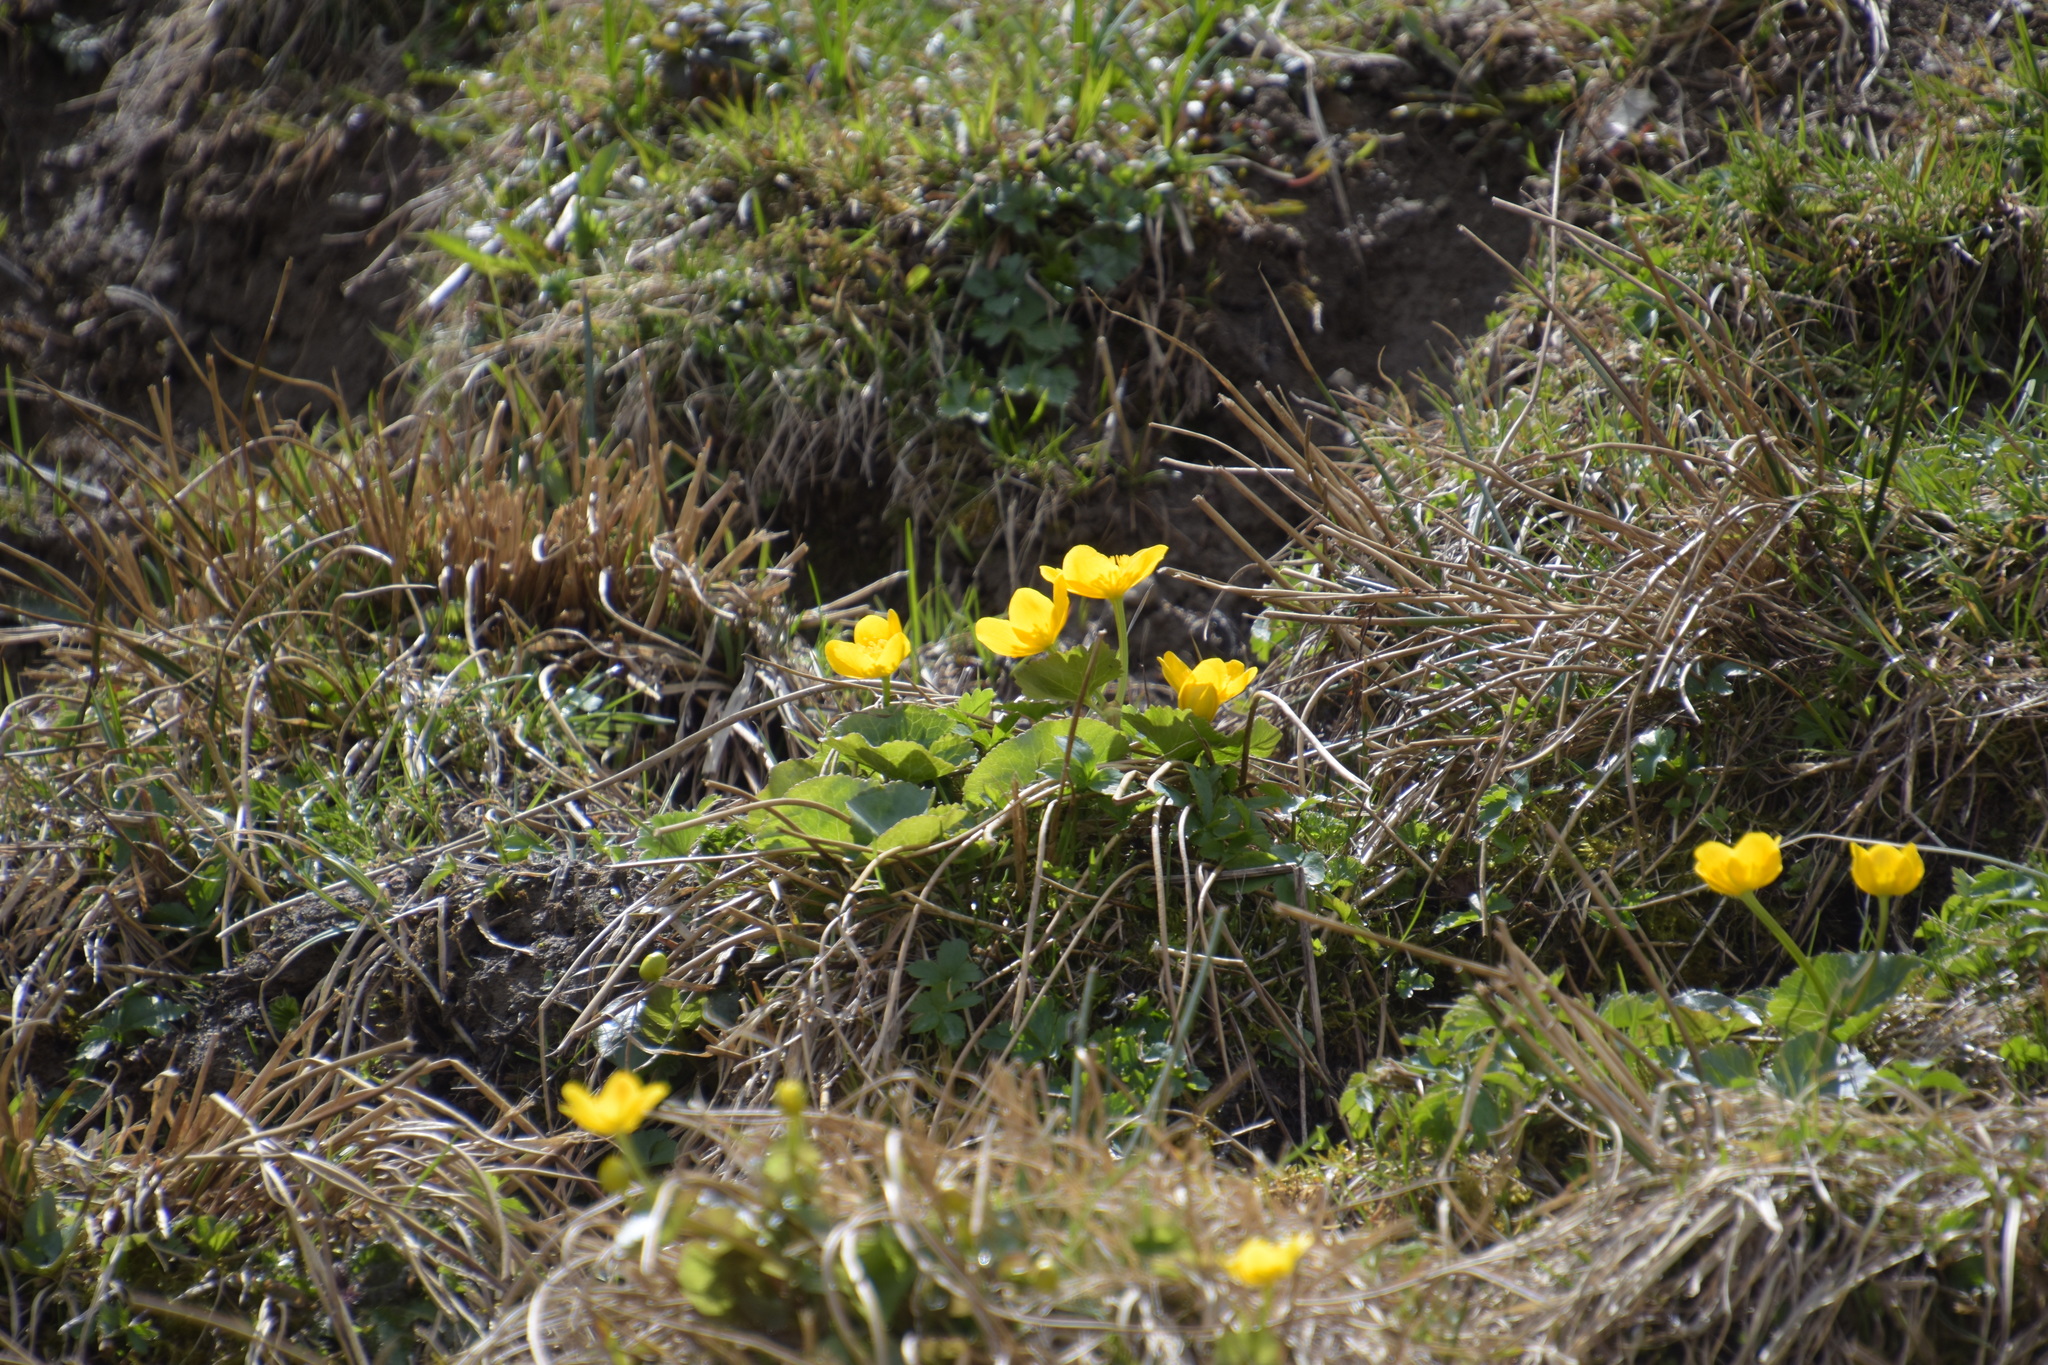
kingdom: Plantae
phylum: Tracheophyta
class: Magnoliopsida
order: Ranunculales
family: Ranunculaceae
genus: Caltha
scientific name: Caltha palustris
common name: Marsh marigold
